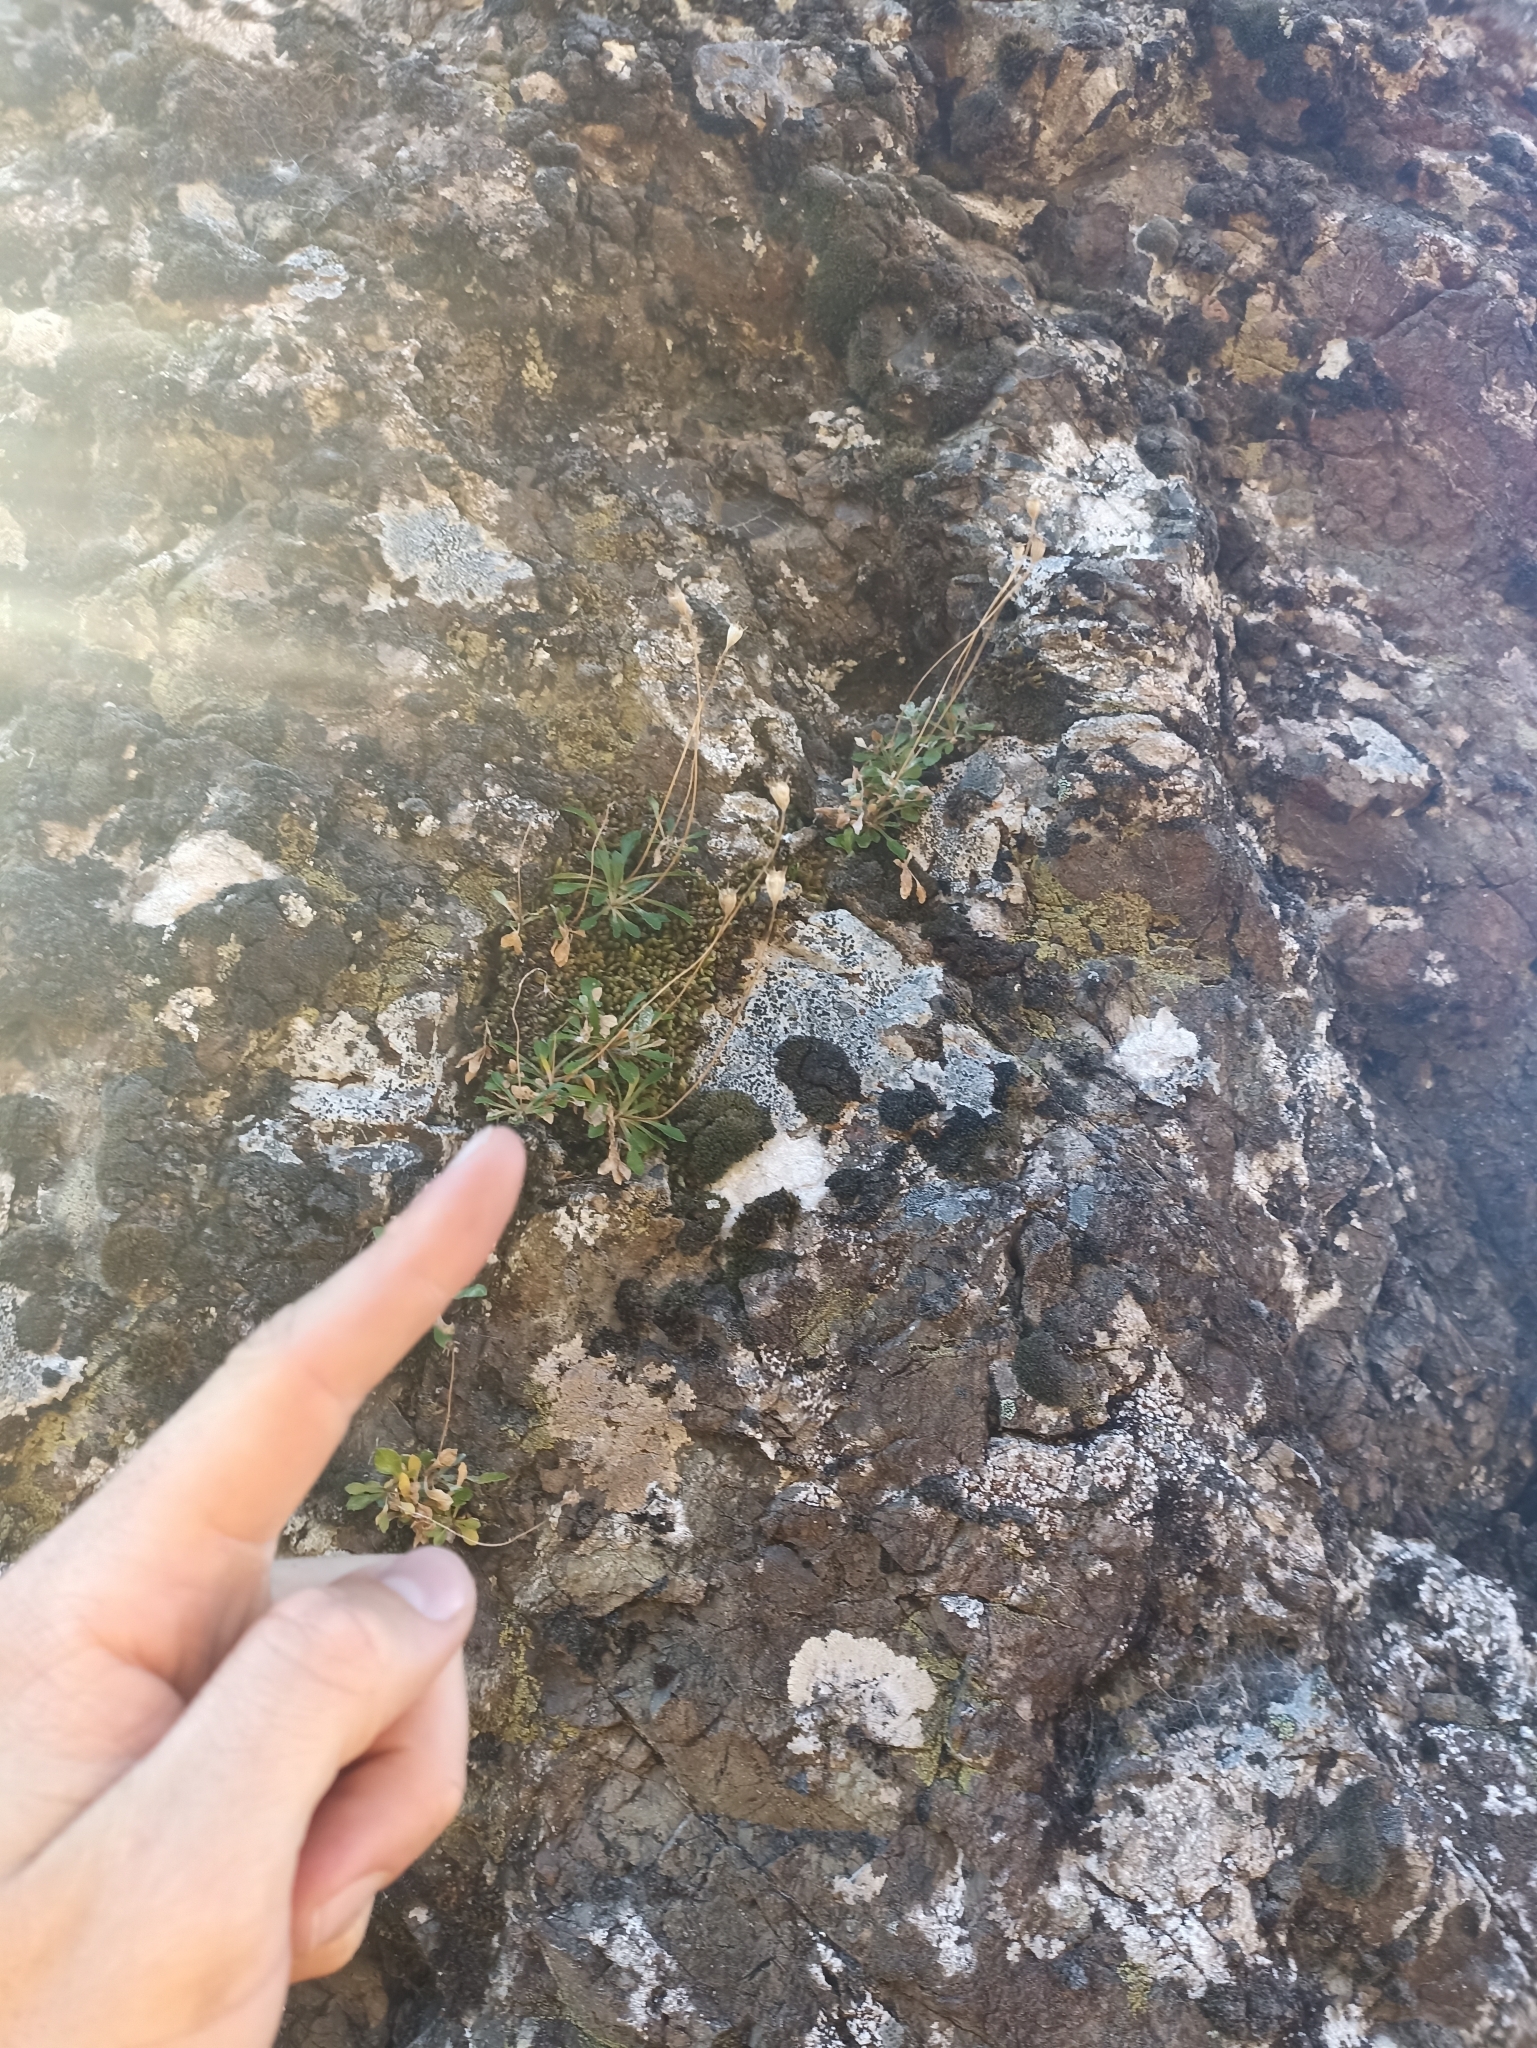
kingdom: Plantae
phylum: Tracheophyta
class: Magnoliopsida
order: Asterales
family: Campanulaceae
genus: Wahlenbergia
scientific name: Wahlenbergia albomarginata
